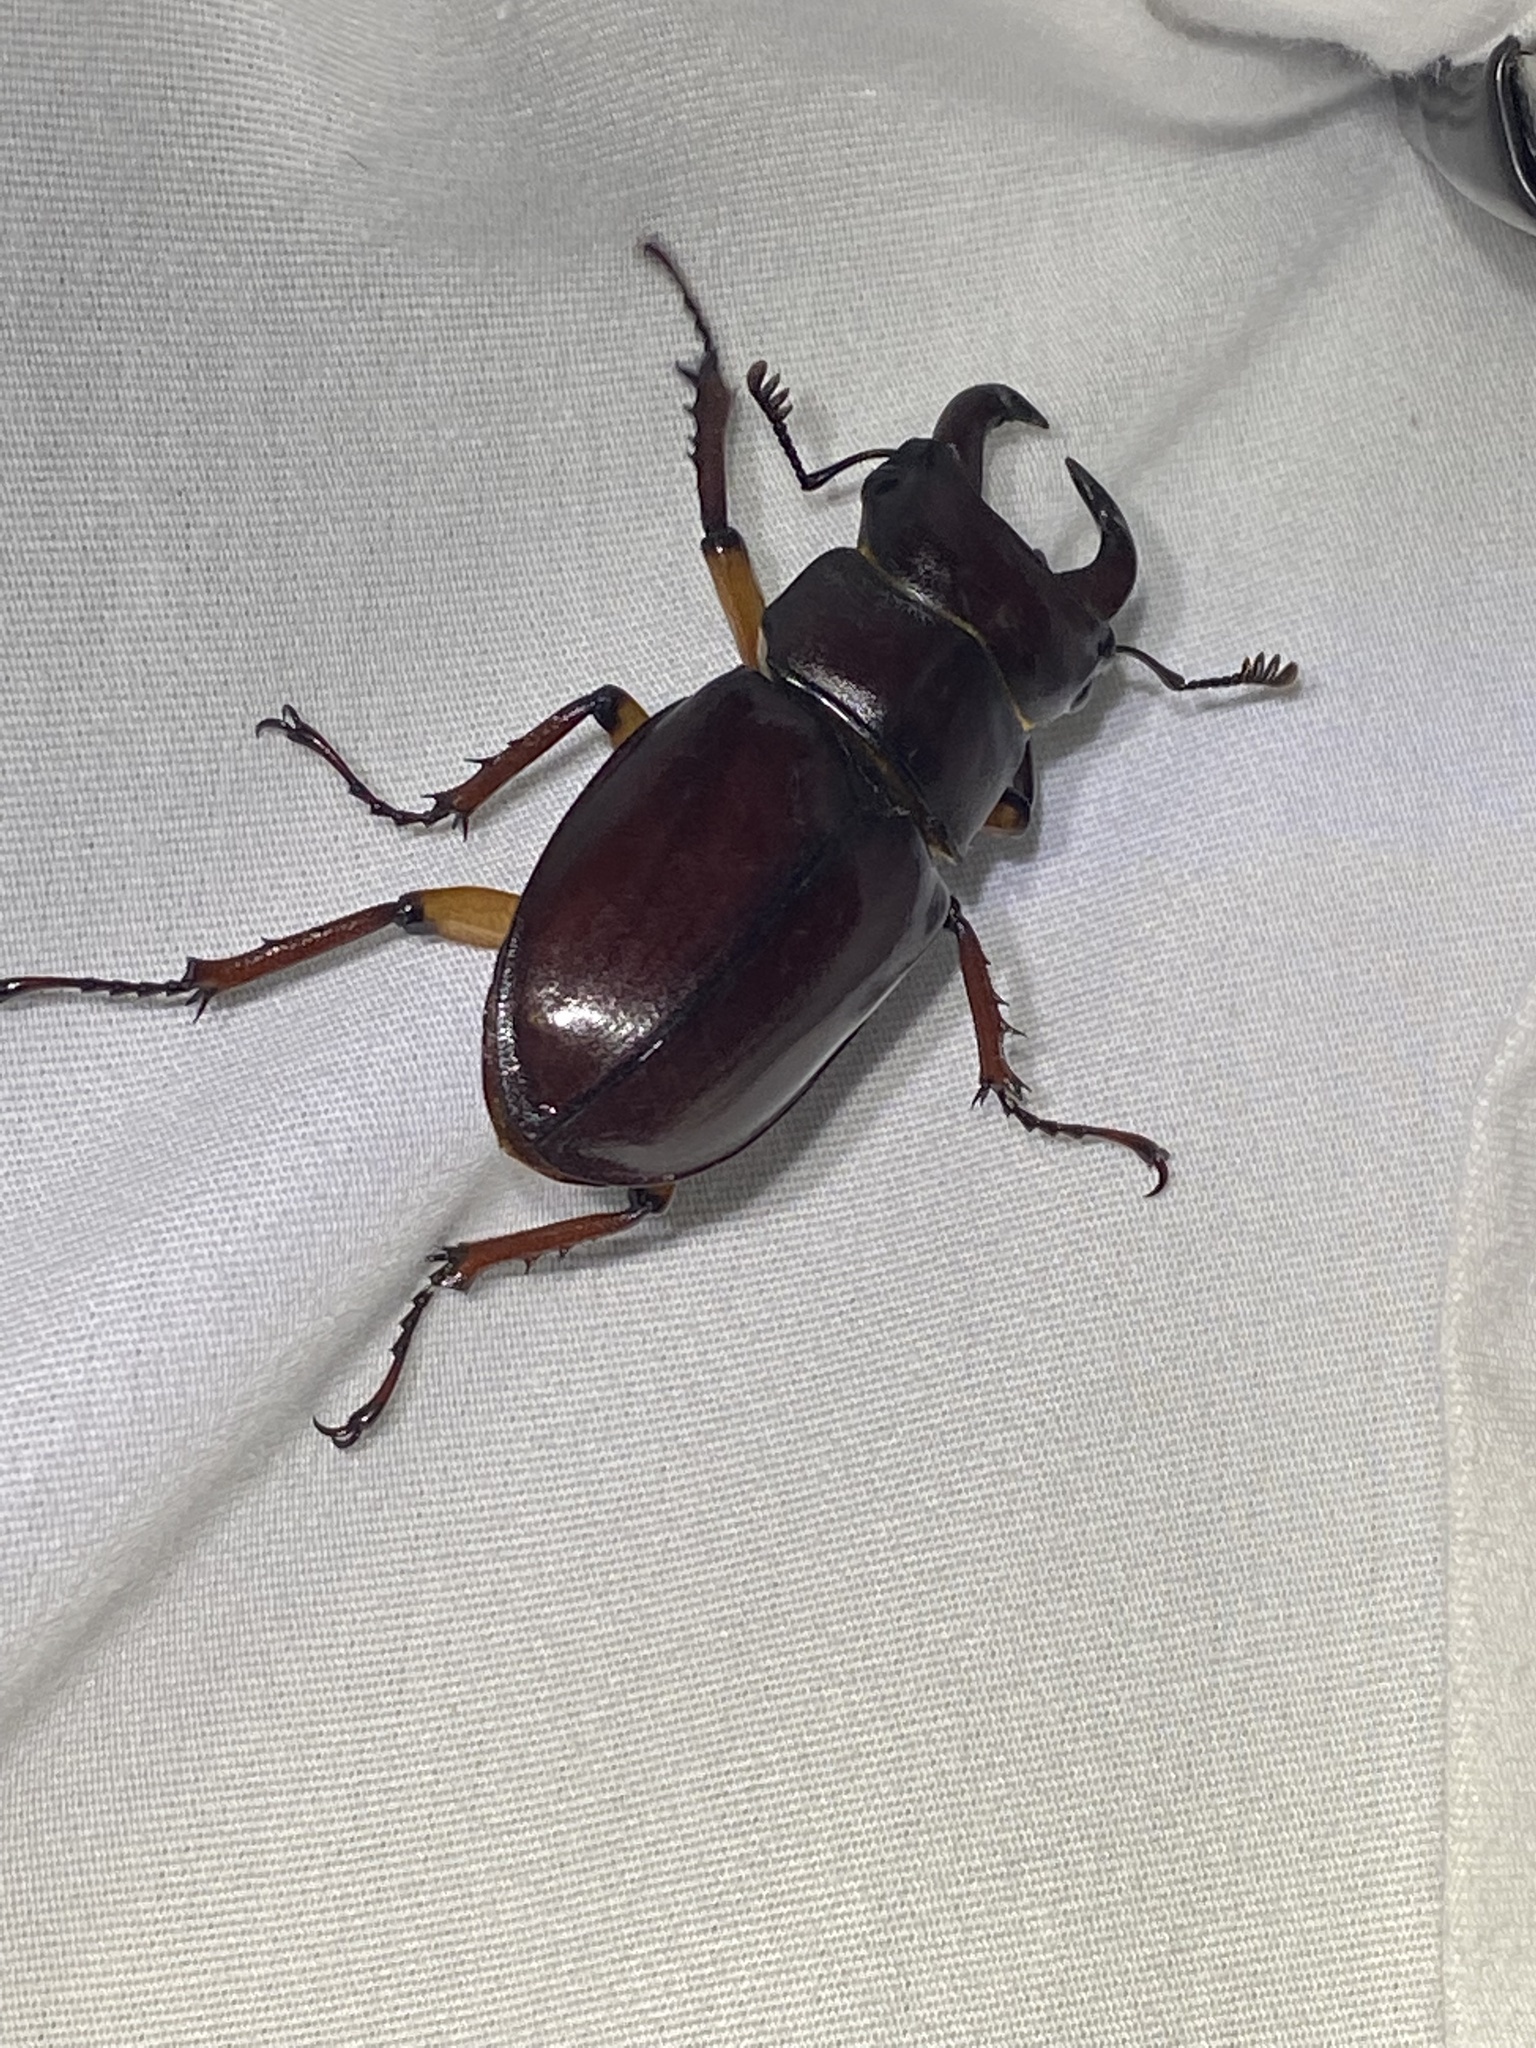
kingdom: Animalia
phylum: Arthropoda
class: Insecta
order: Coleoptera
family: Lucanidae
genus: Lucanus
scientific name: Lucanus capreolus
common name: Stag beetle
